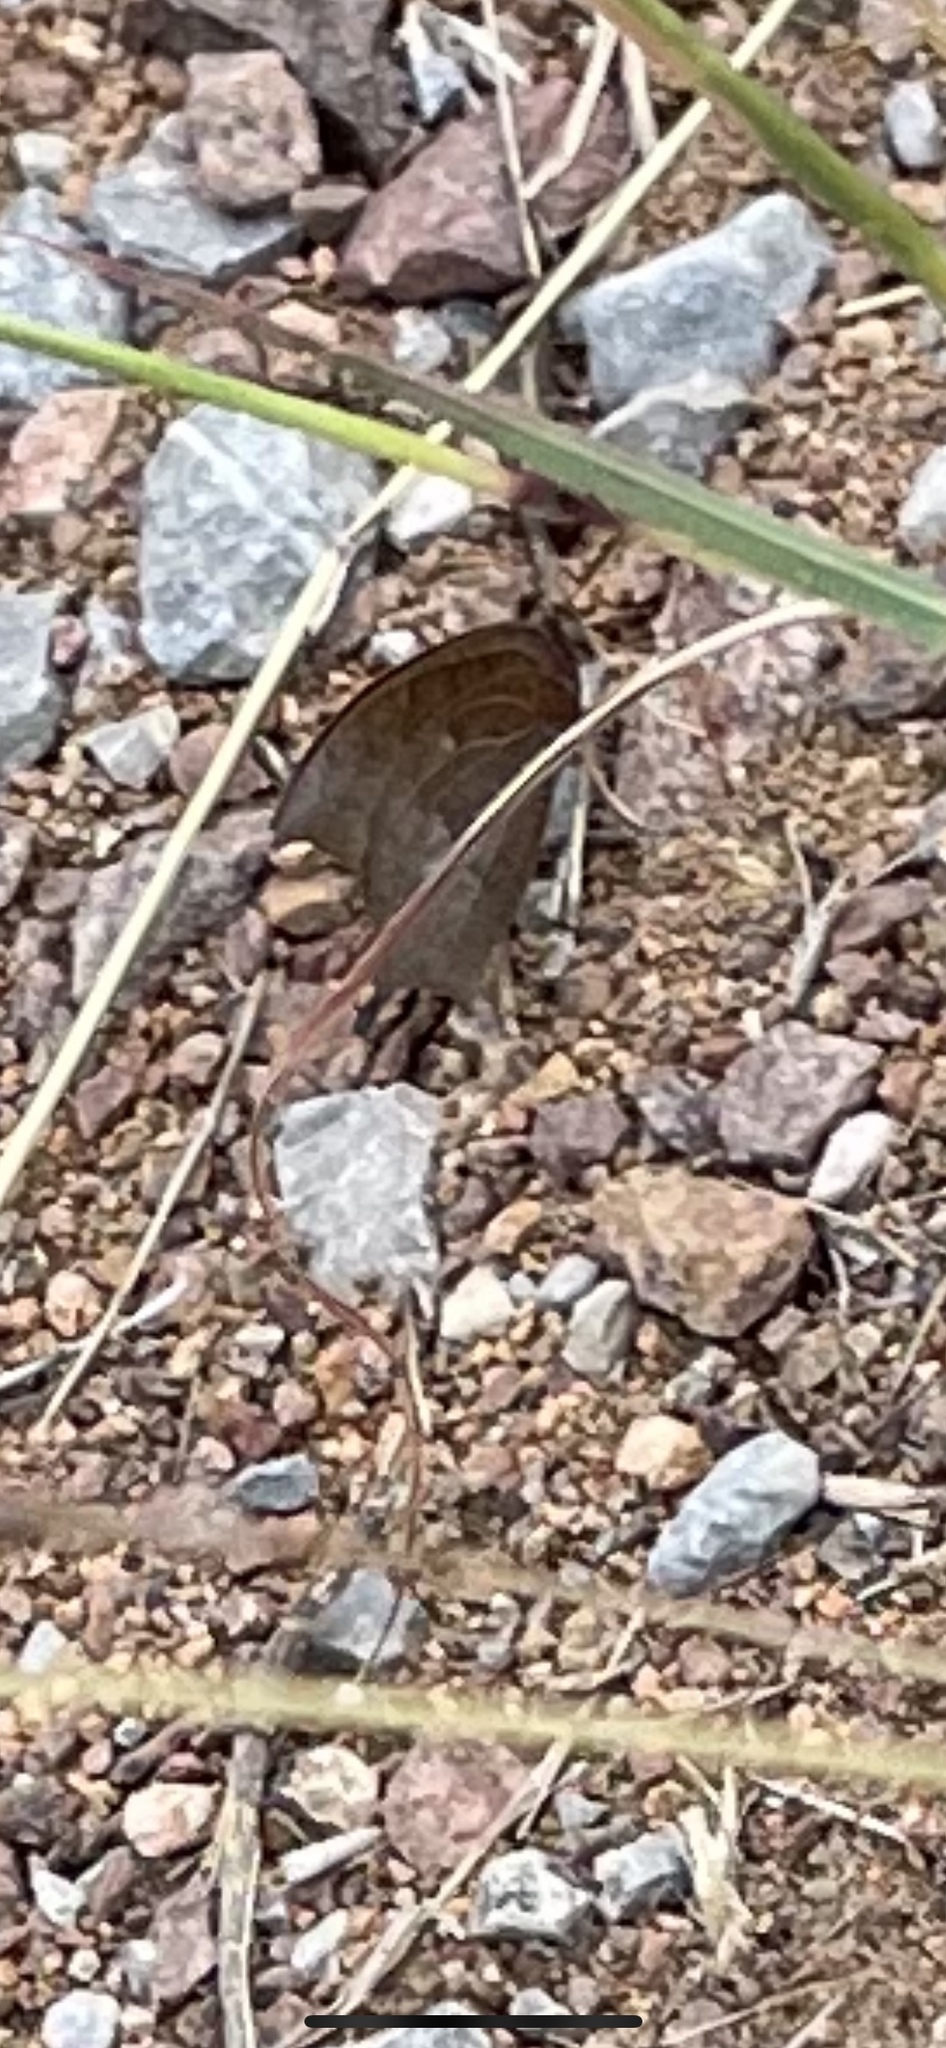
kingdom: Animalia
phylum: Arthropoda
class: Insecta
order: Lepidoptera
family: Nymphalidae
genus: Anaea
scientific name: Anaea andria
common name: Goatweed leafwing
